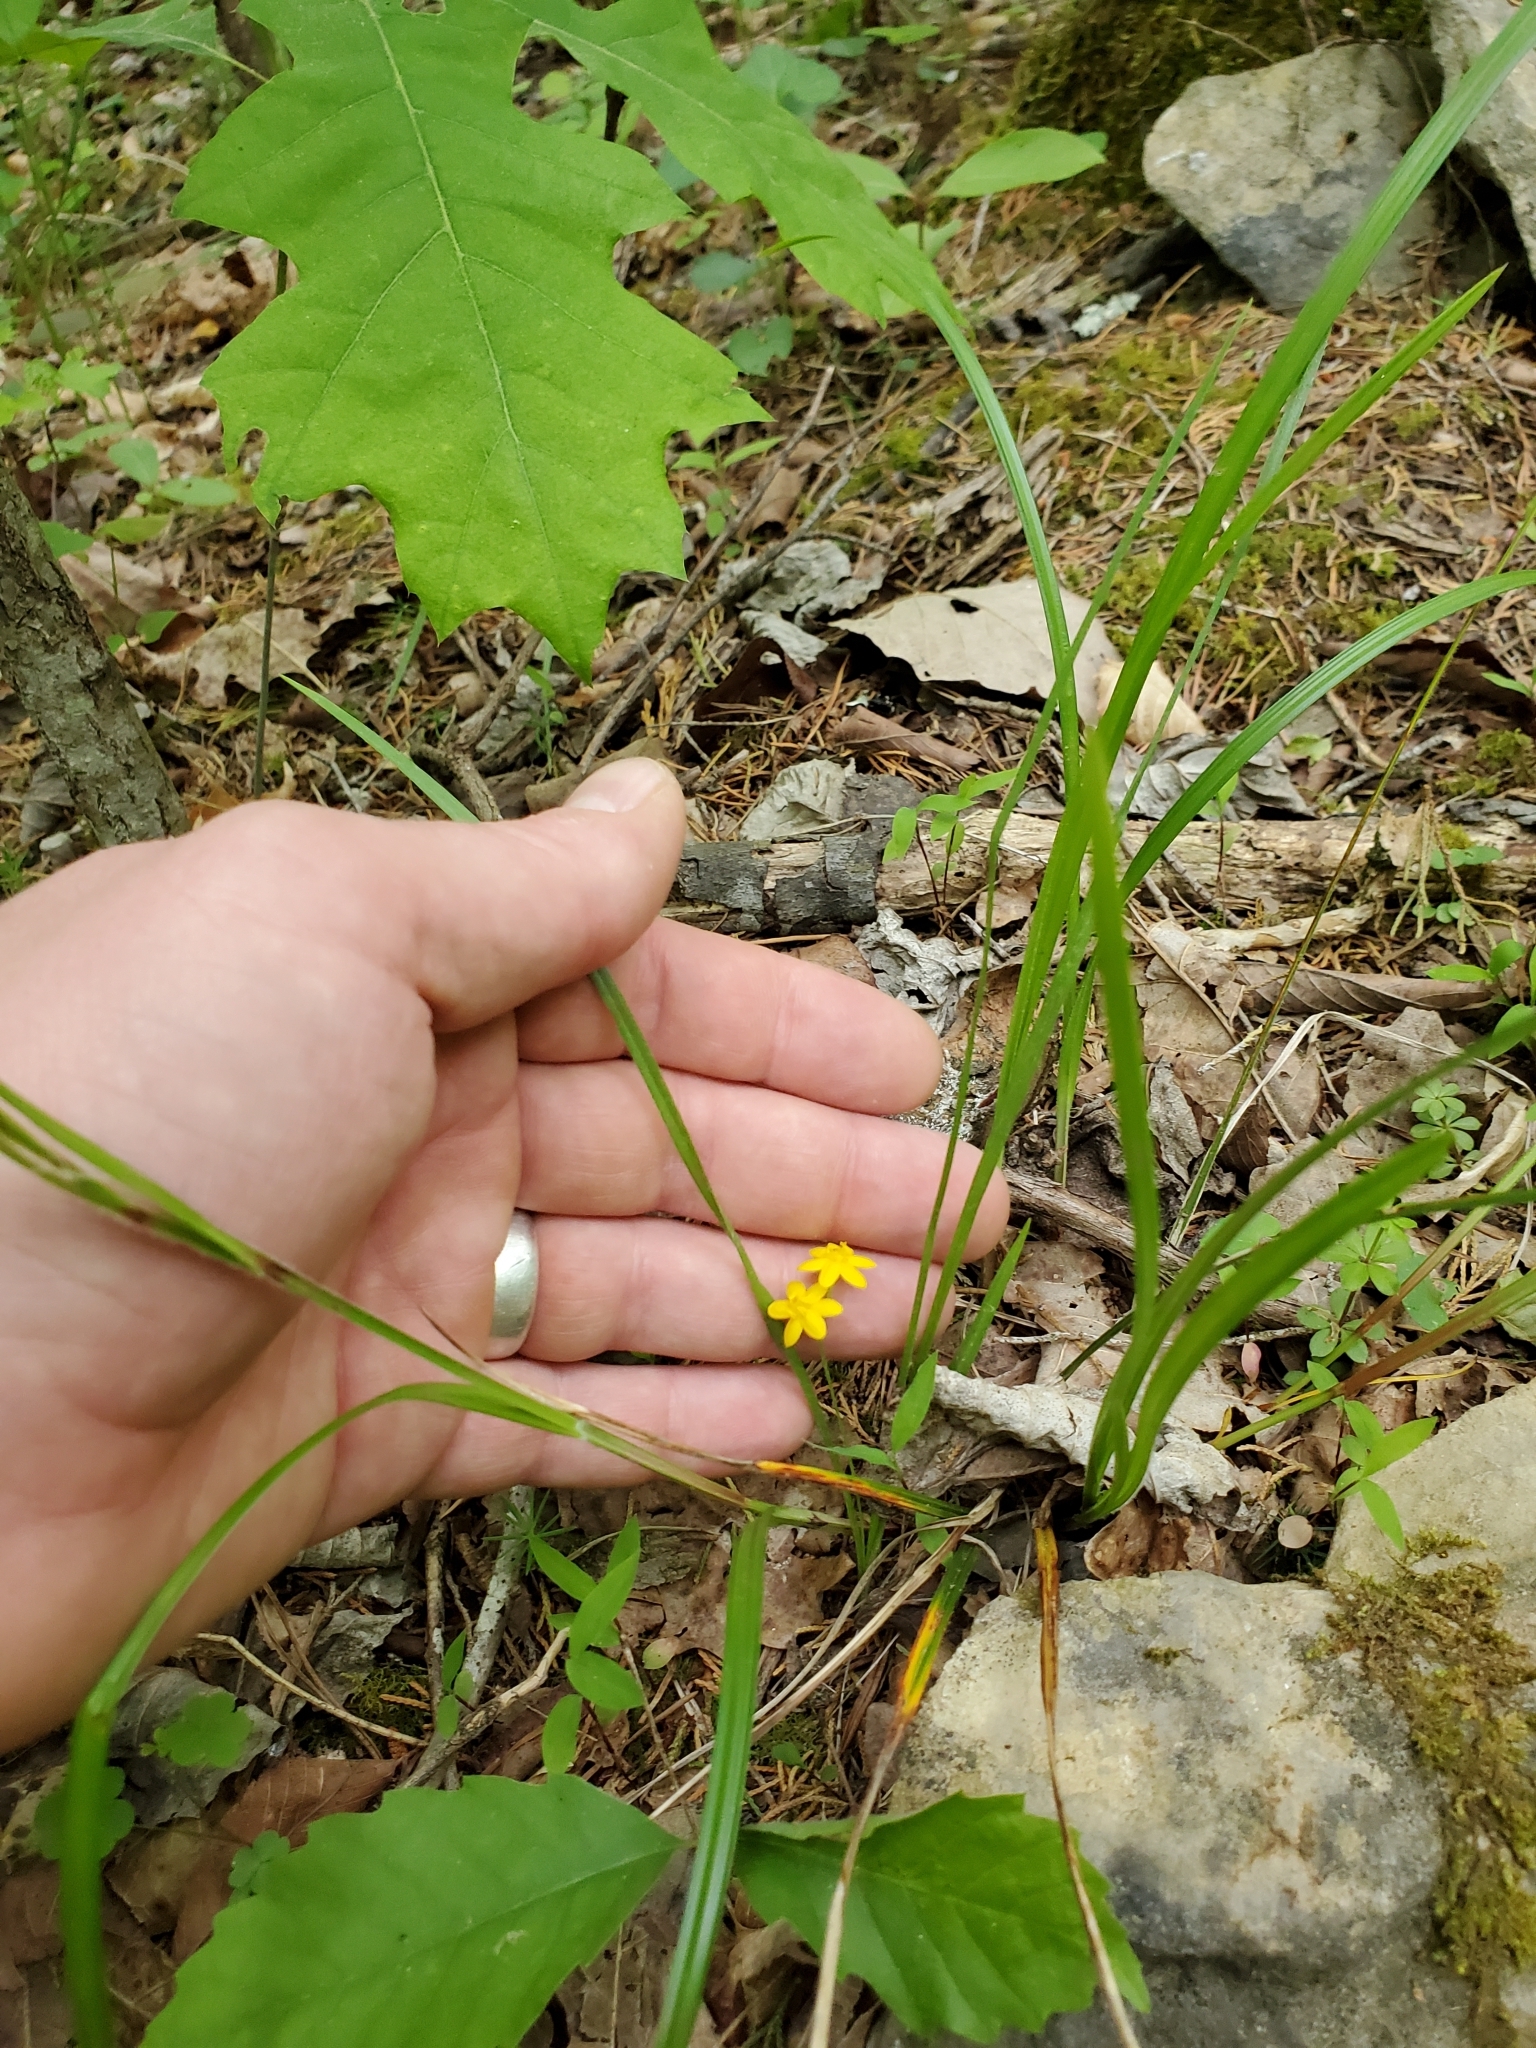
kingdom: Plantae
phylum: Tracheophyta
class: Liliopsida
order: Asparagales
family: Hypoxidaceae
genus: Hypoxis
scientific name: Hypoxis hirsuta
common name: Common goldstar
